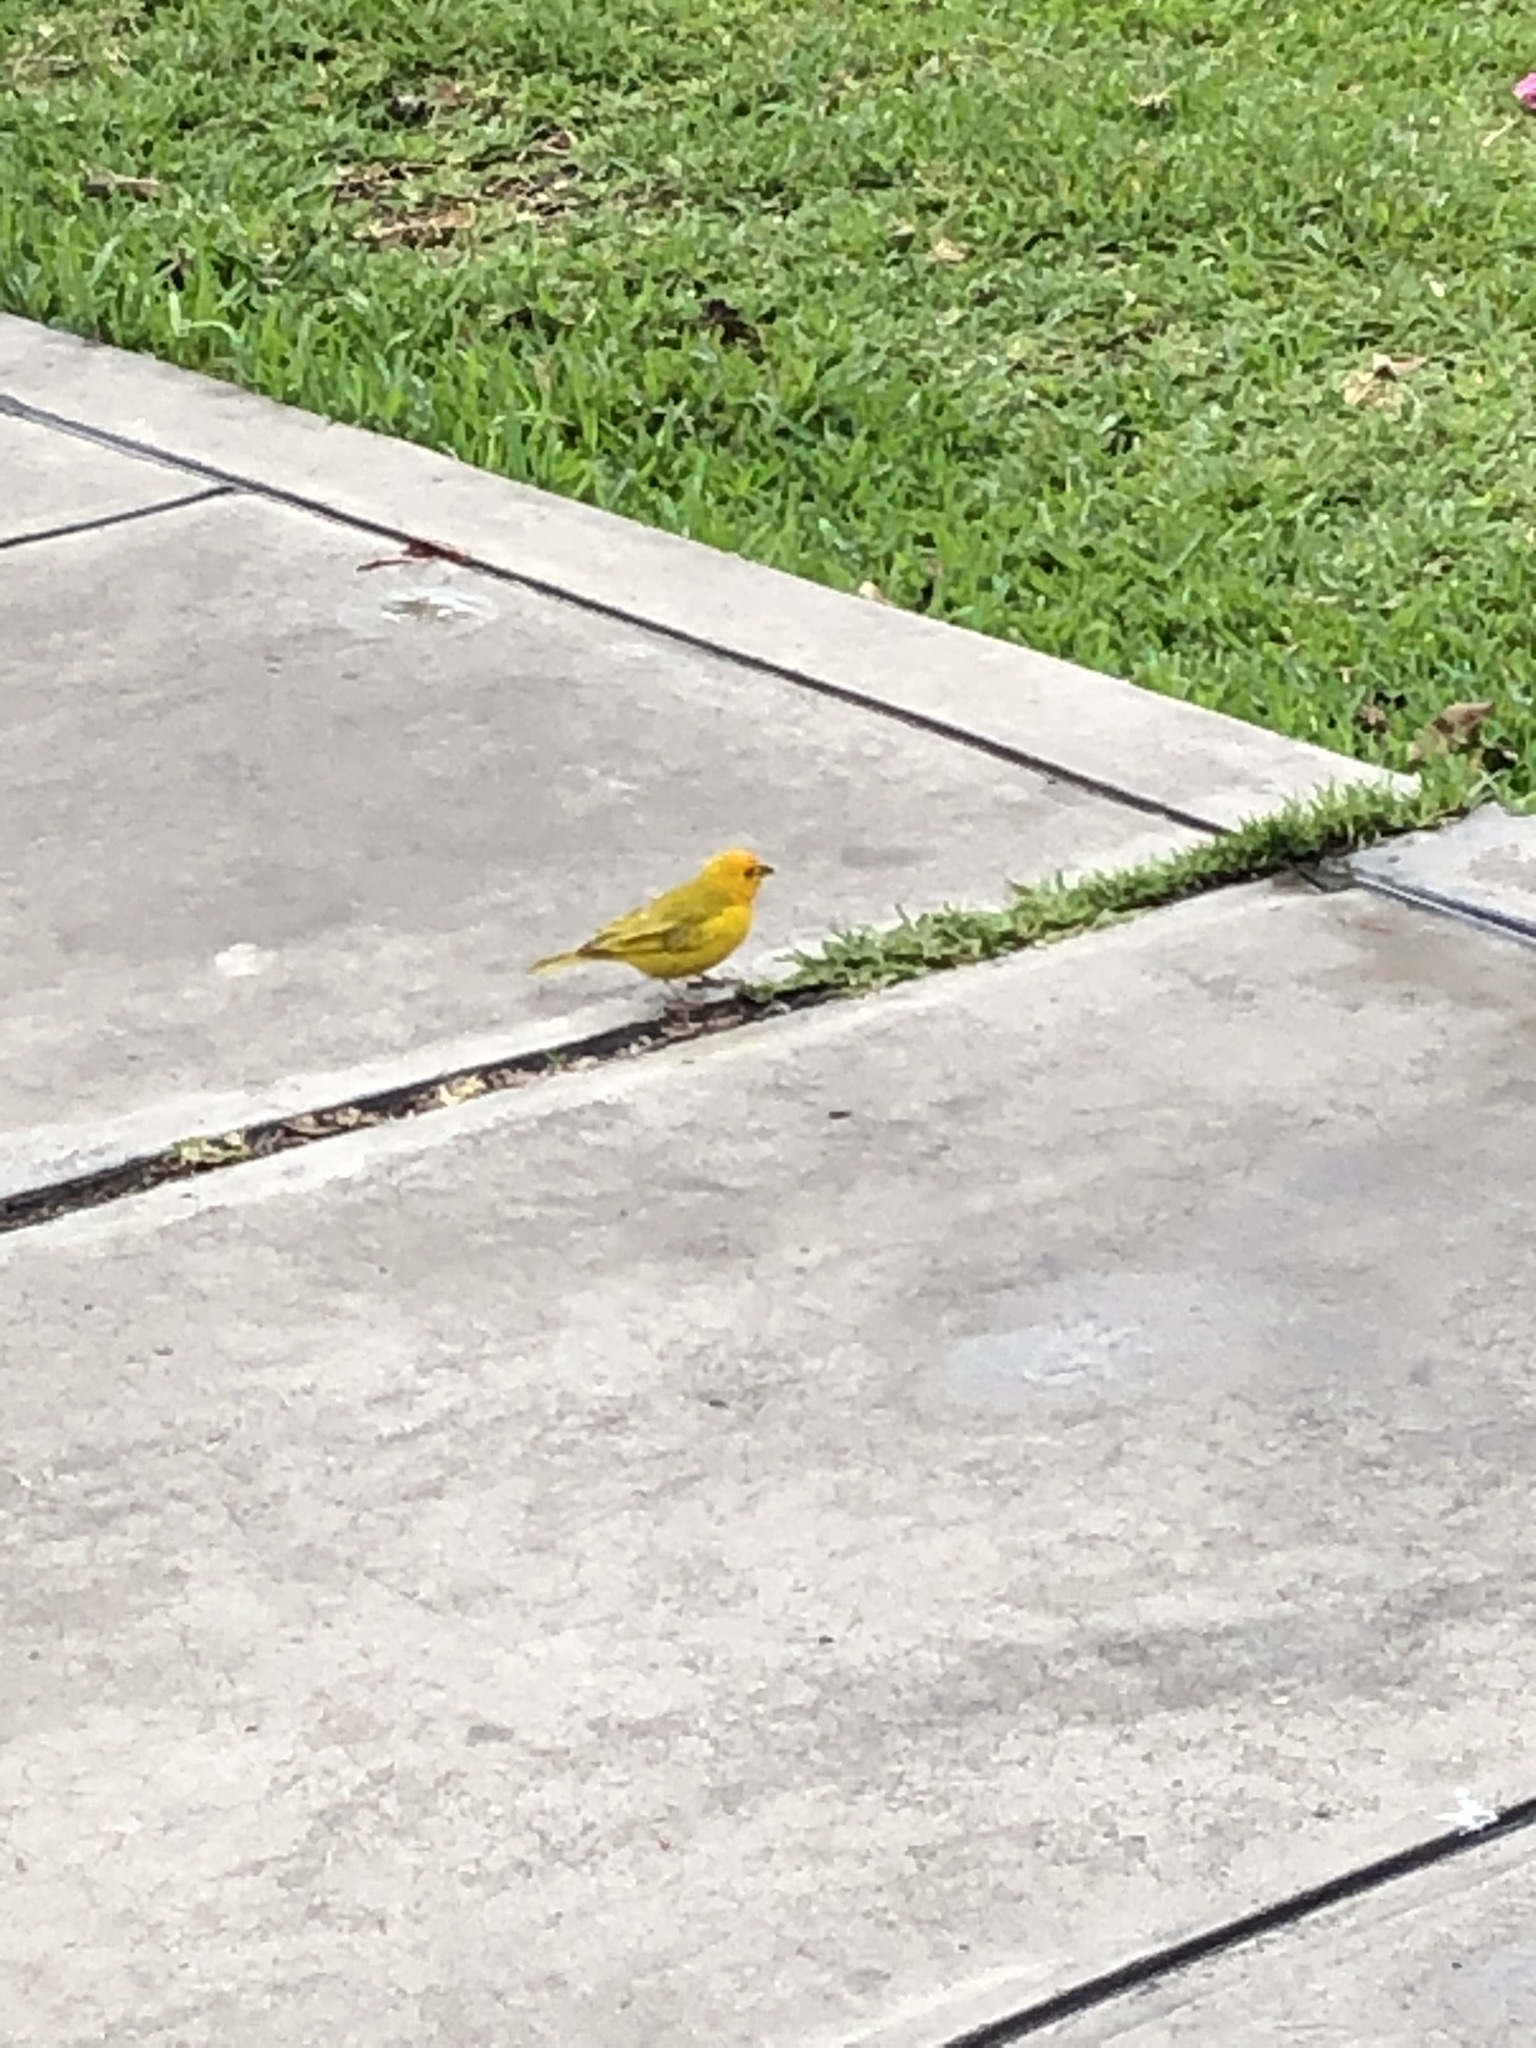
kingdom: Animalia
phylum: Chordata
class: Aves
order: Passeriformes
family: Thraupidae
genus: Sicalis
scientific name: Sicalis flaveola
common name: Saffron finch
